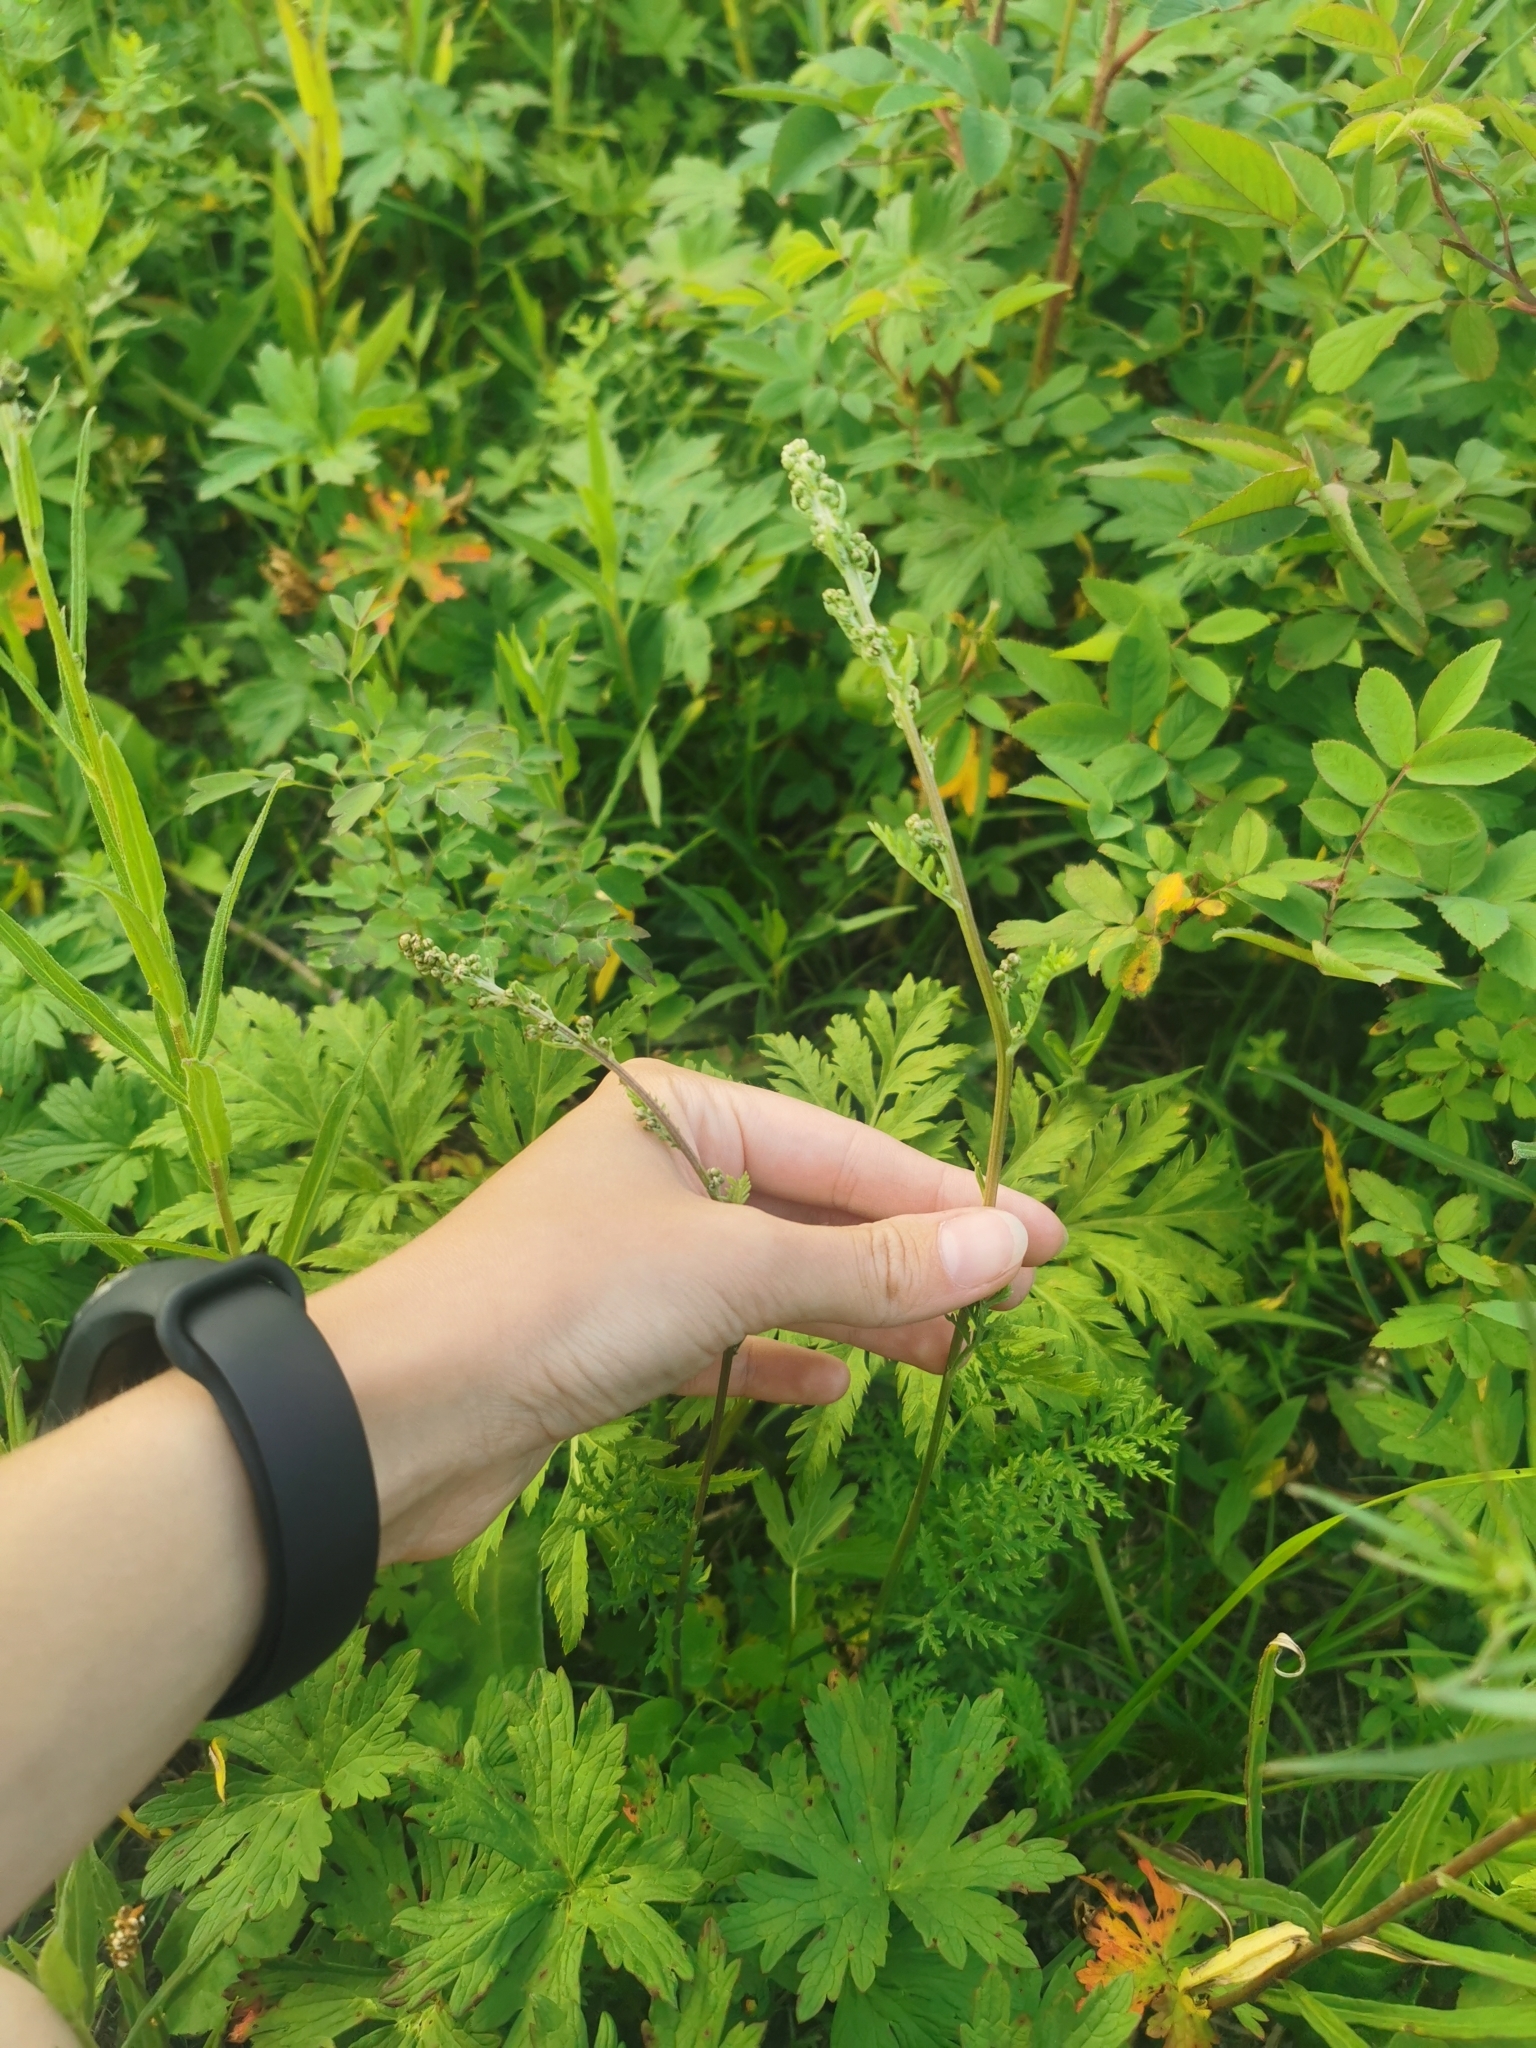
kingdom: Plantae
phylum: Tracheophyta
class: Magnoliopsida
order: Asterales
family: Asteraceae
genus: Artemisia
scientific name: Artemisia laciniata
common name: Siberian wormwood
